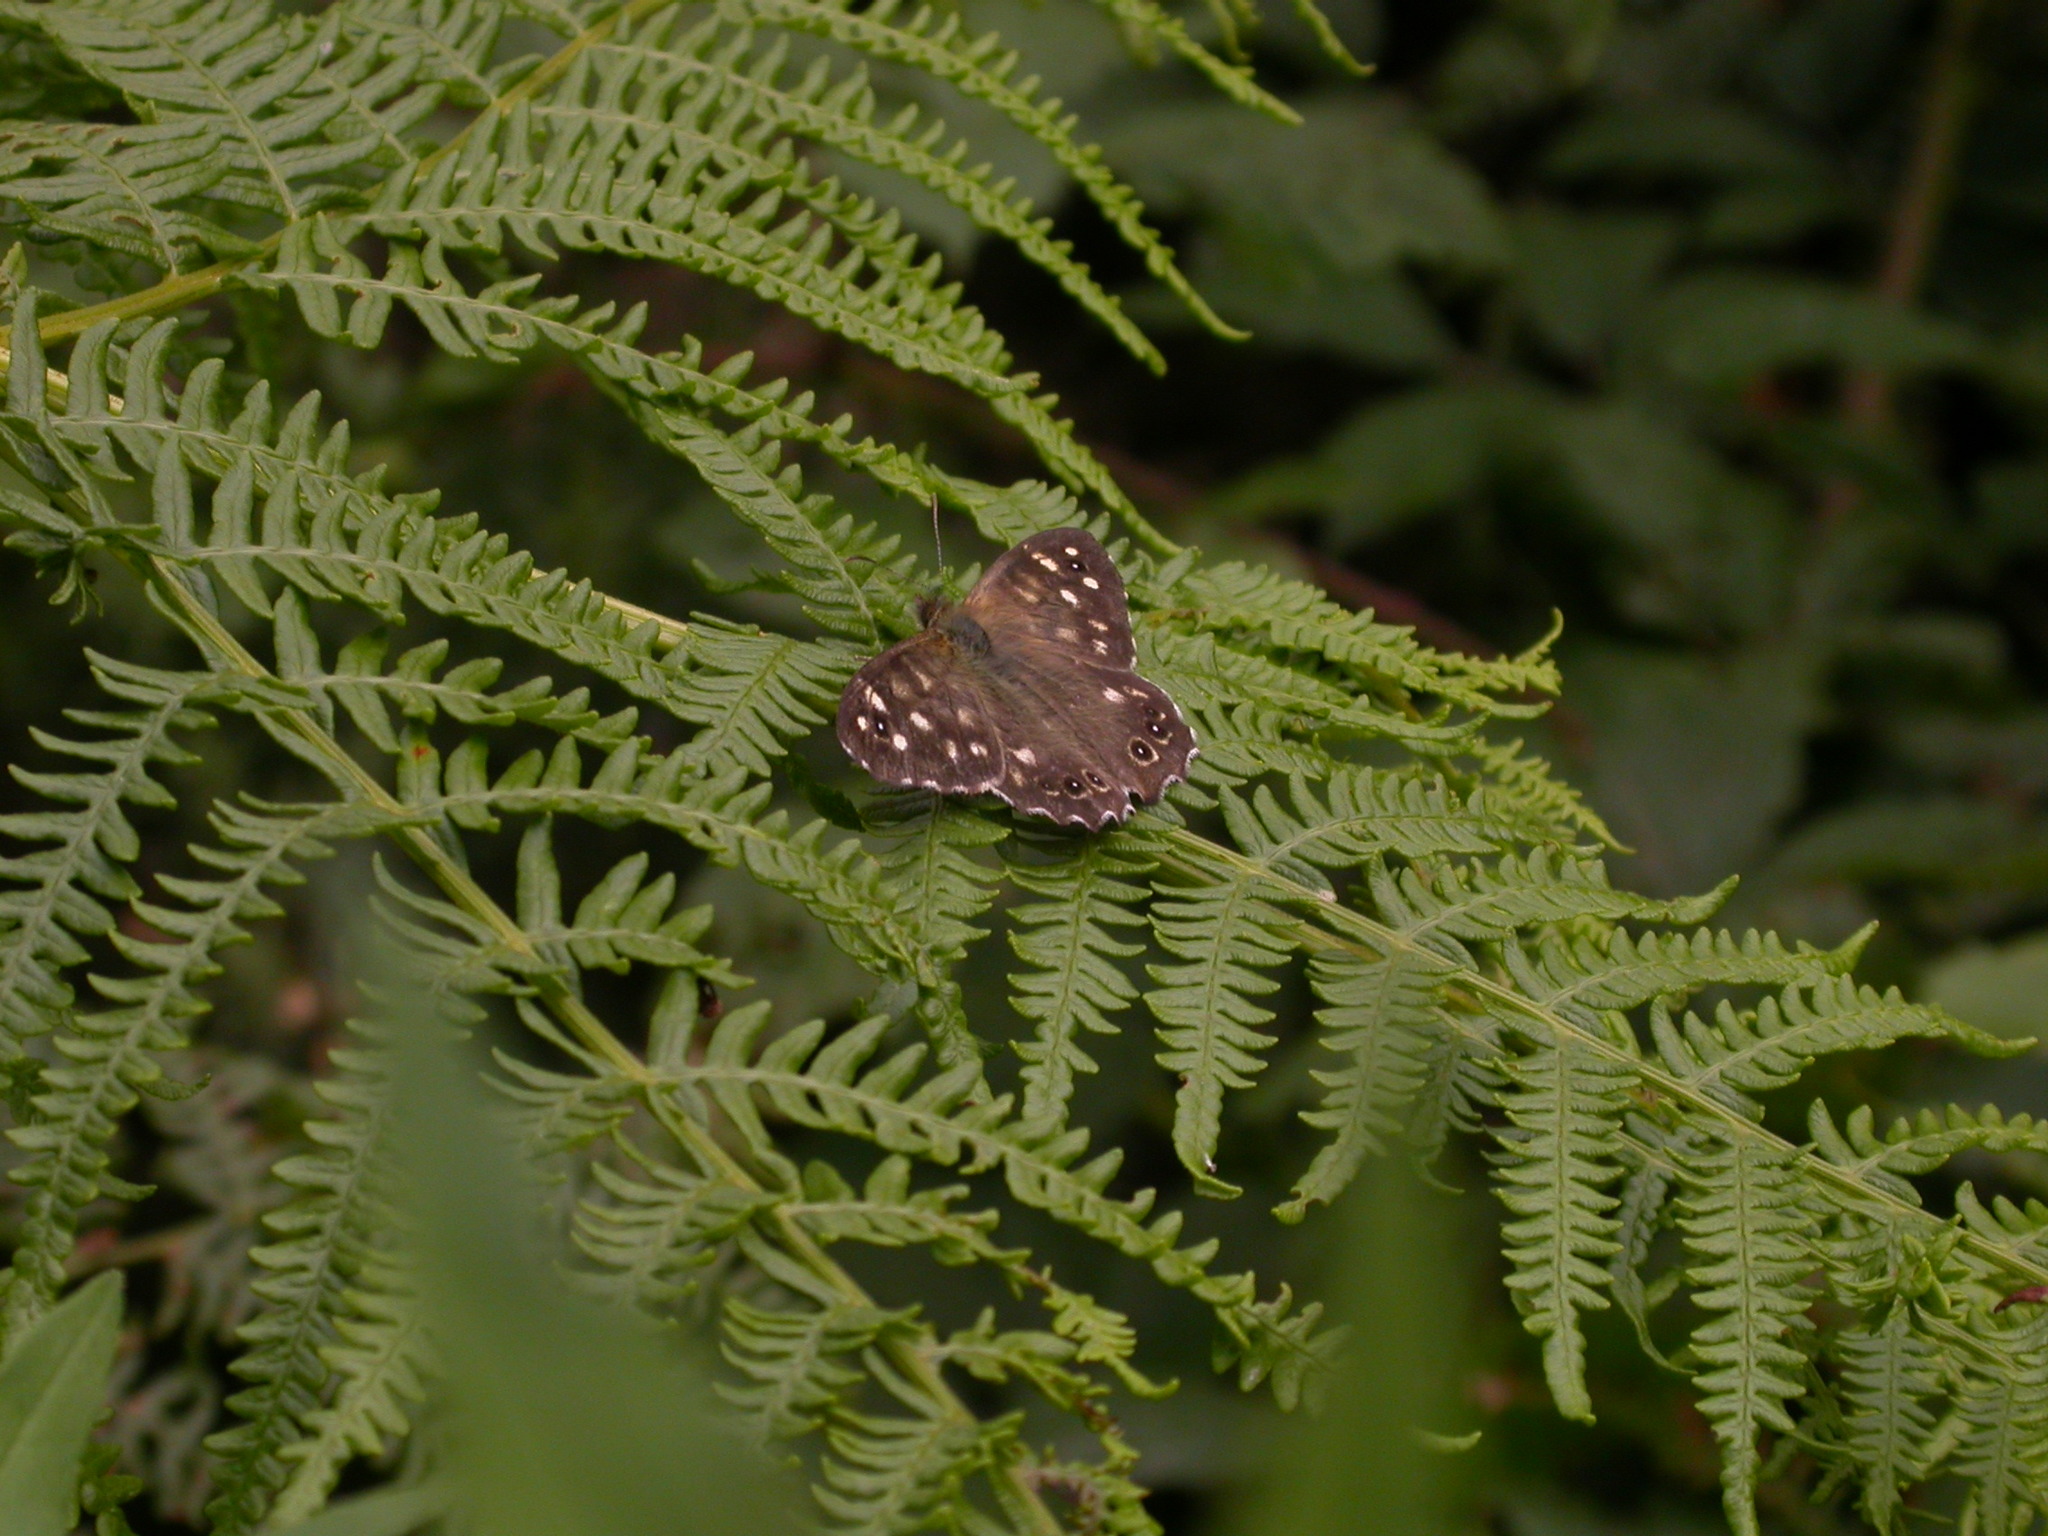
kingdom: Animalia
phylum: Arthropoda
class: Insecta
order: Lepidoptera
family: Nymphalidae
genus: Pararge
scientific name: Pararge aegeria
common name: Speckled wood
